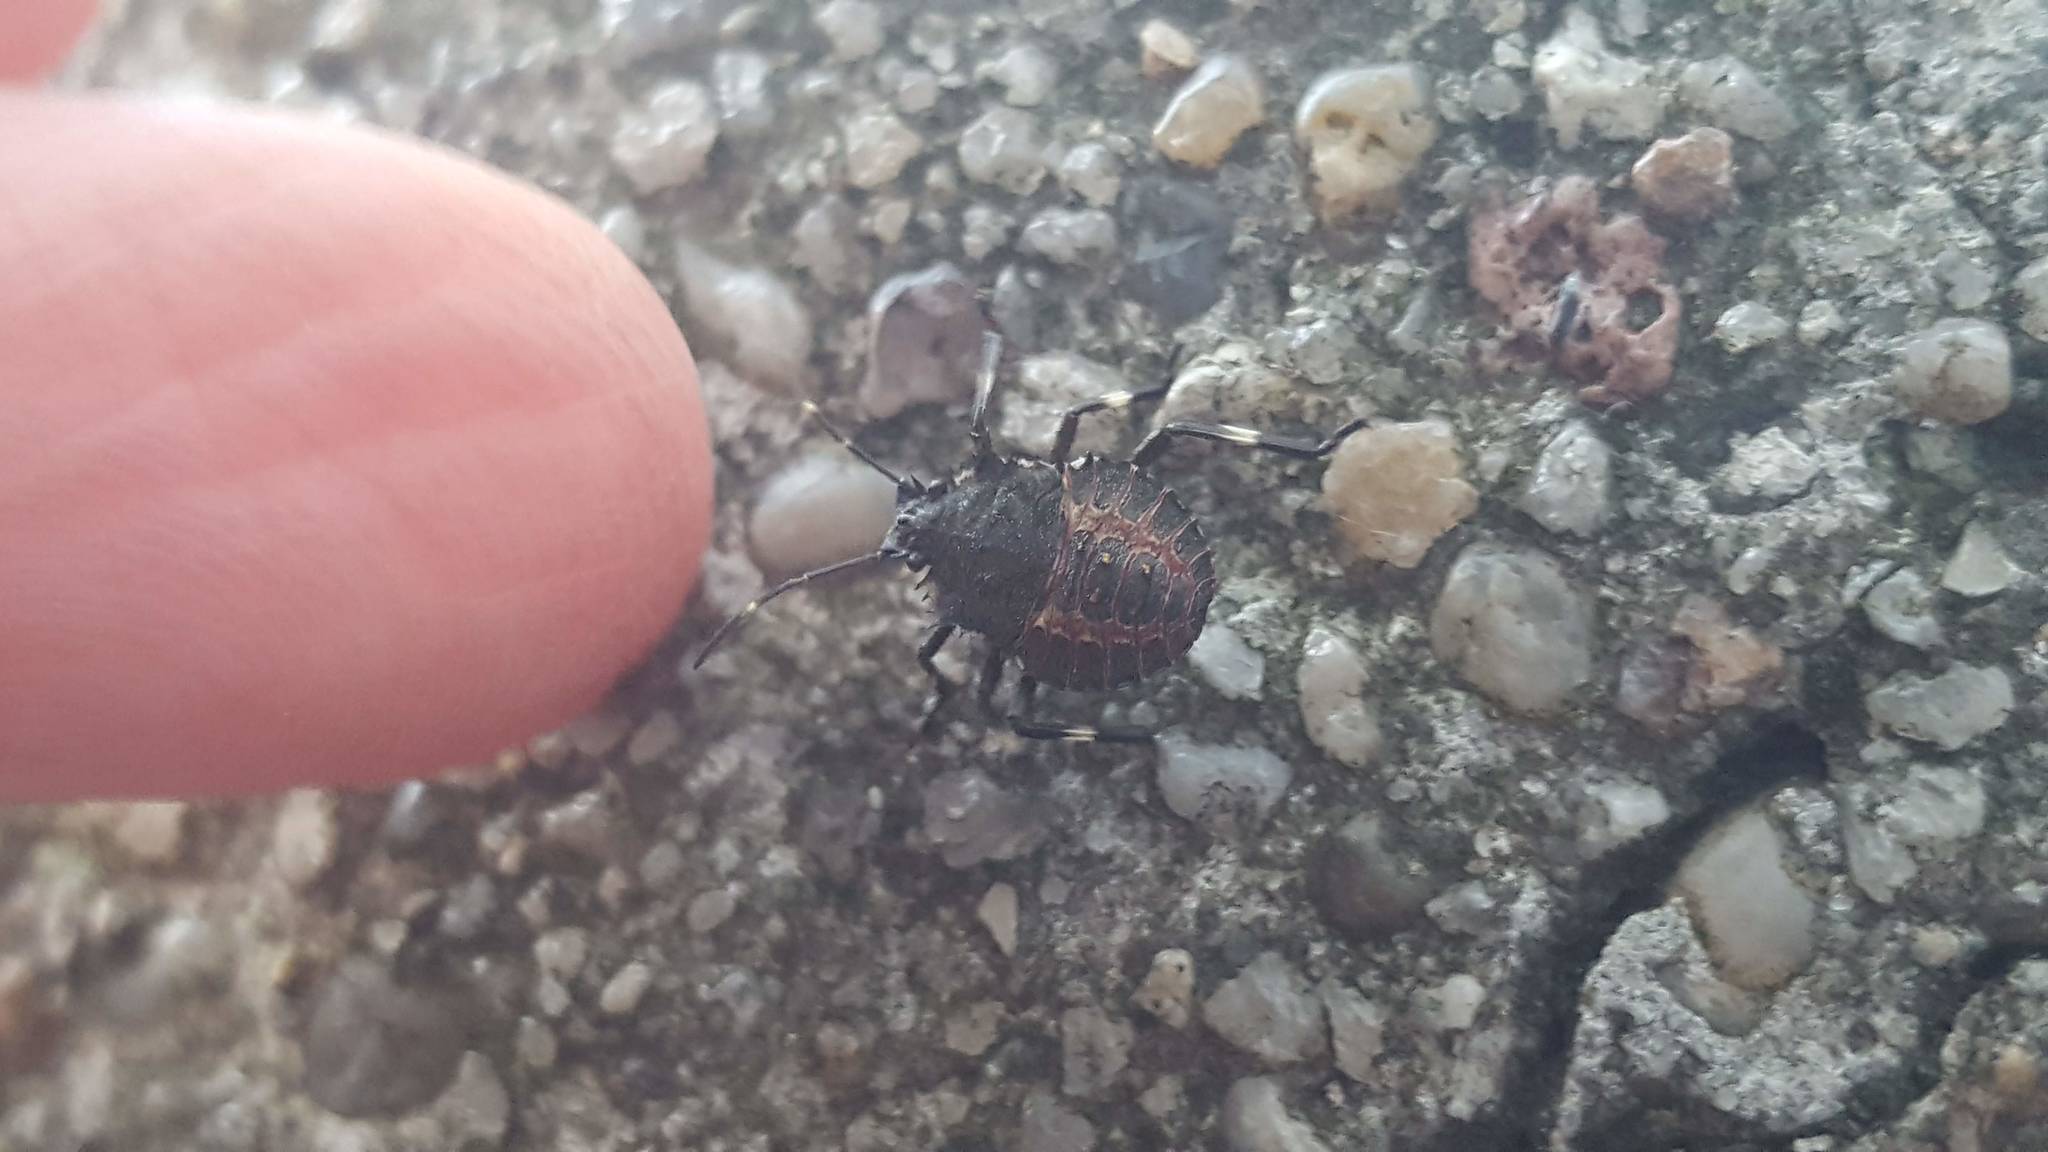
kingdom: Animalia
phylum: Arthropoda
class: Insecta
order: Hemiptera
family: Pentatomidae
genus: Halyomorpha
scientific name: Halyomorpha halys
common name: Brown marmorated stink bug
